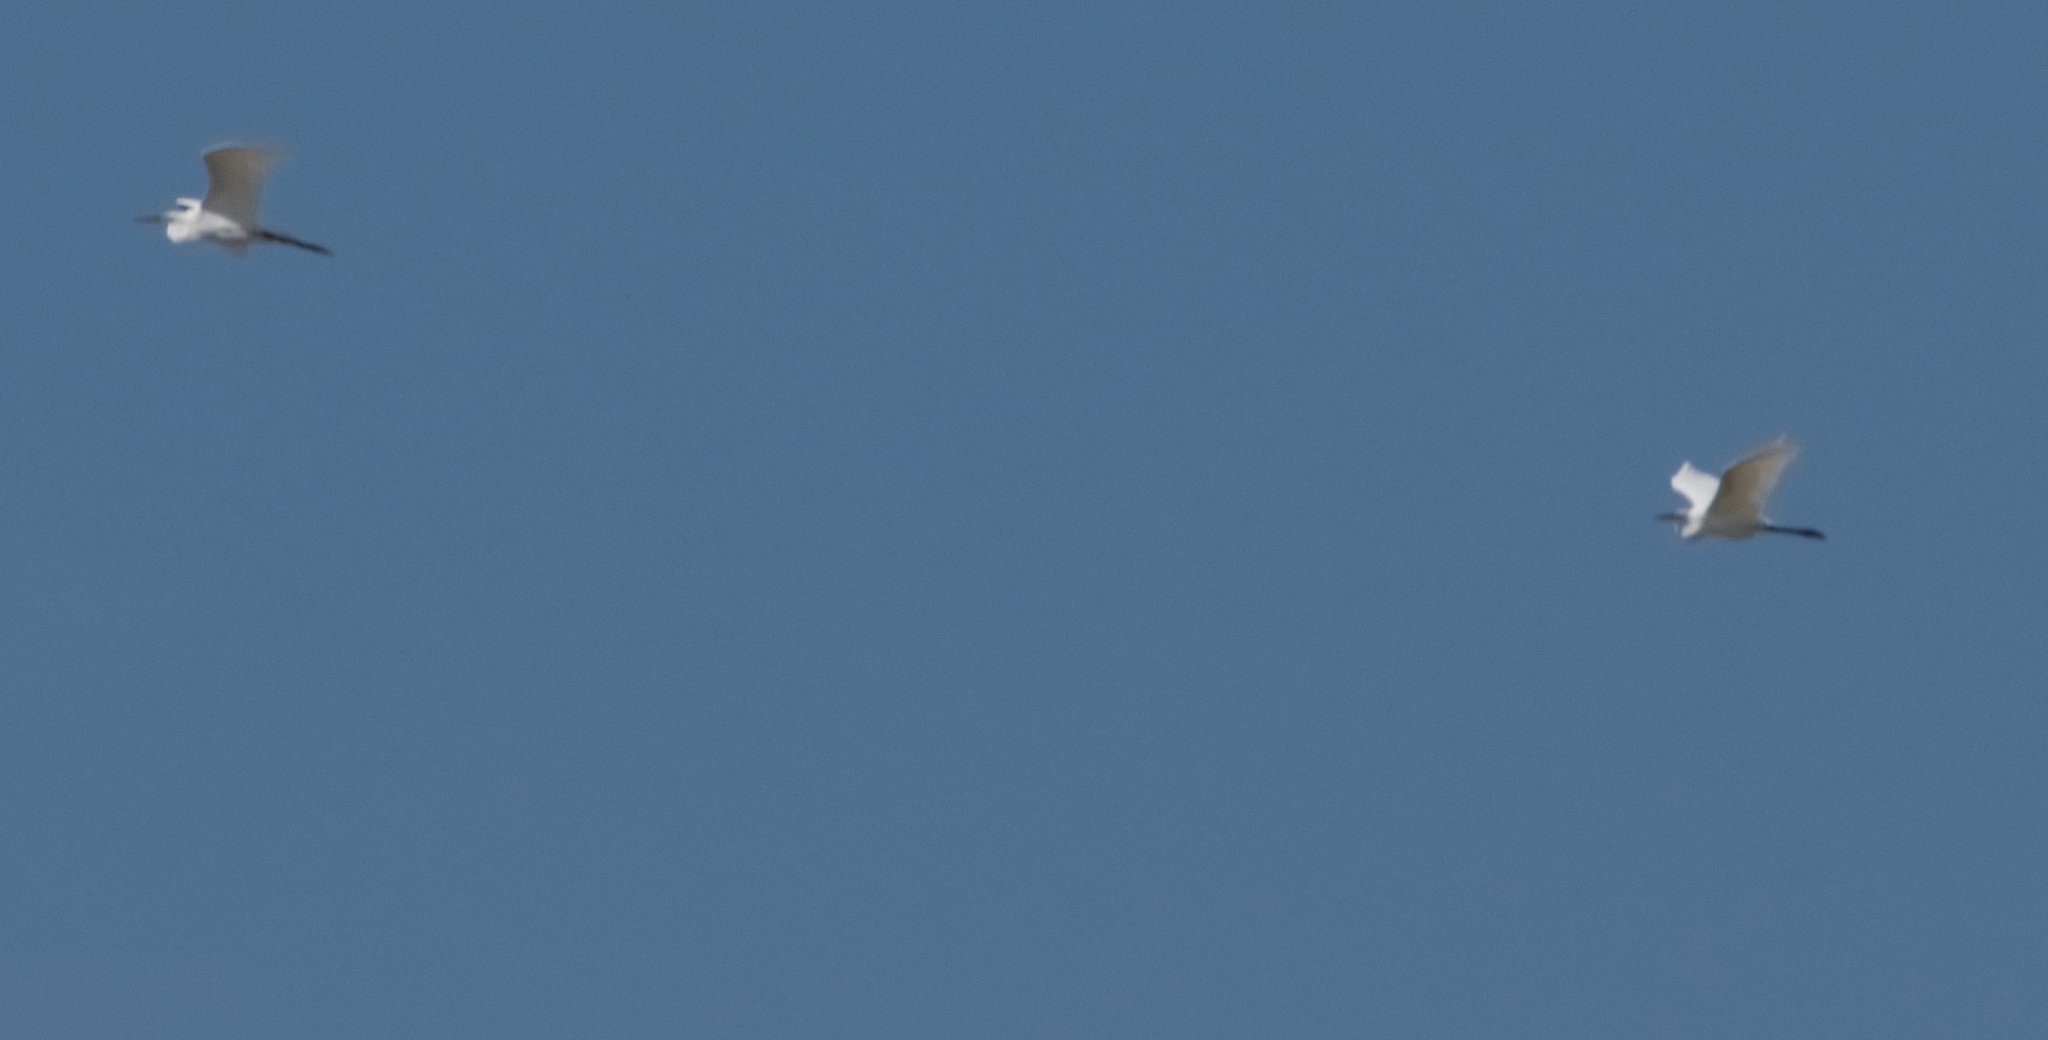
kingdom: Animalia
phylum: Chordata
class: Aves
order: Pelecaniformes
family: Ardeidae
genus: Ardea
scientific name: Ardea alba
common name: Great egret
